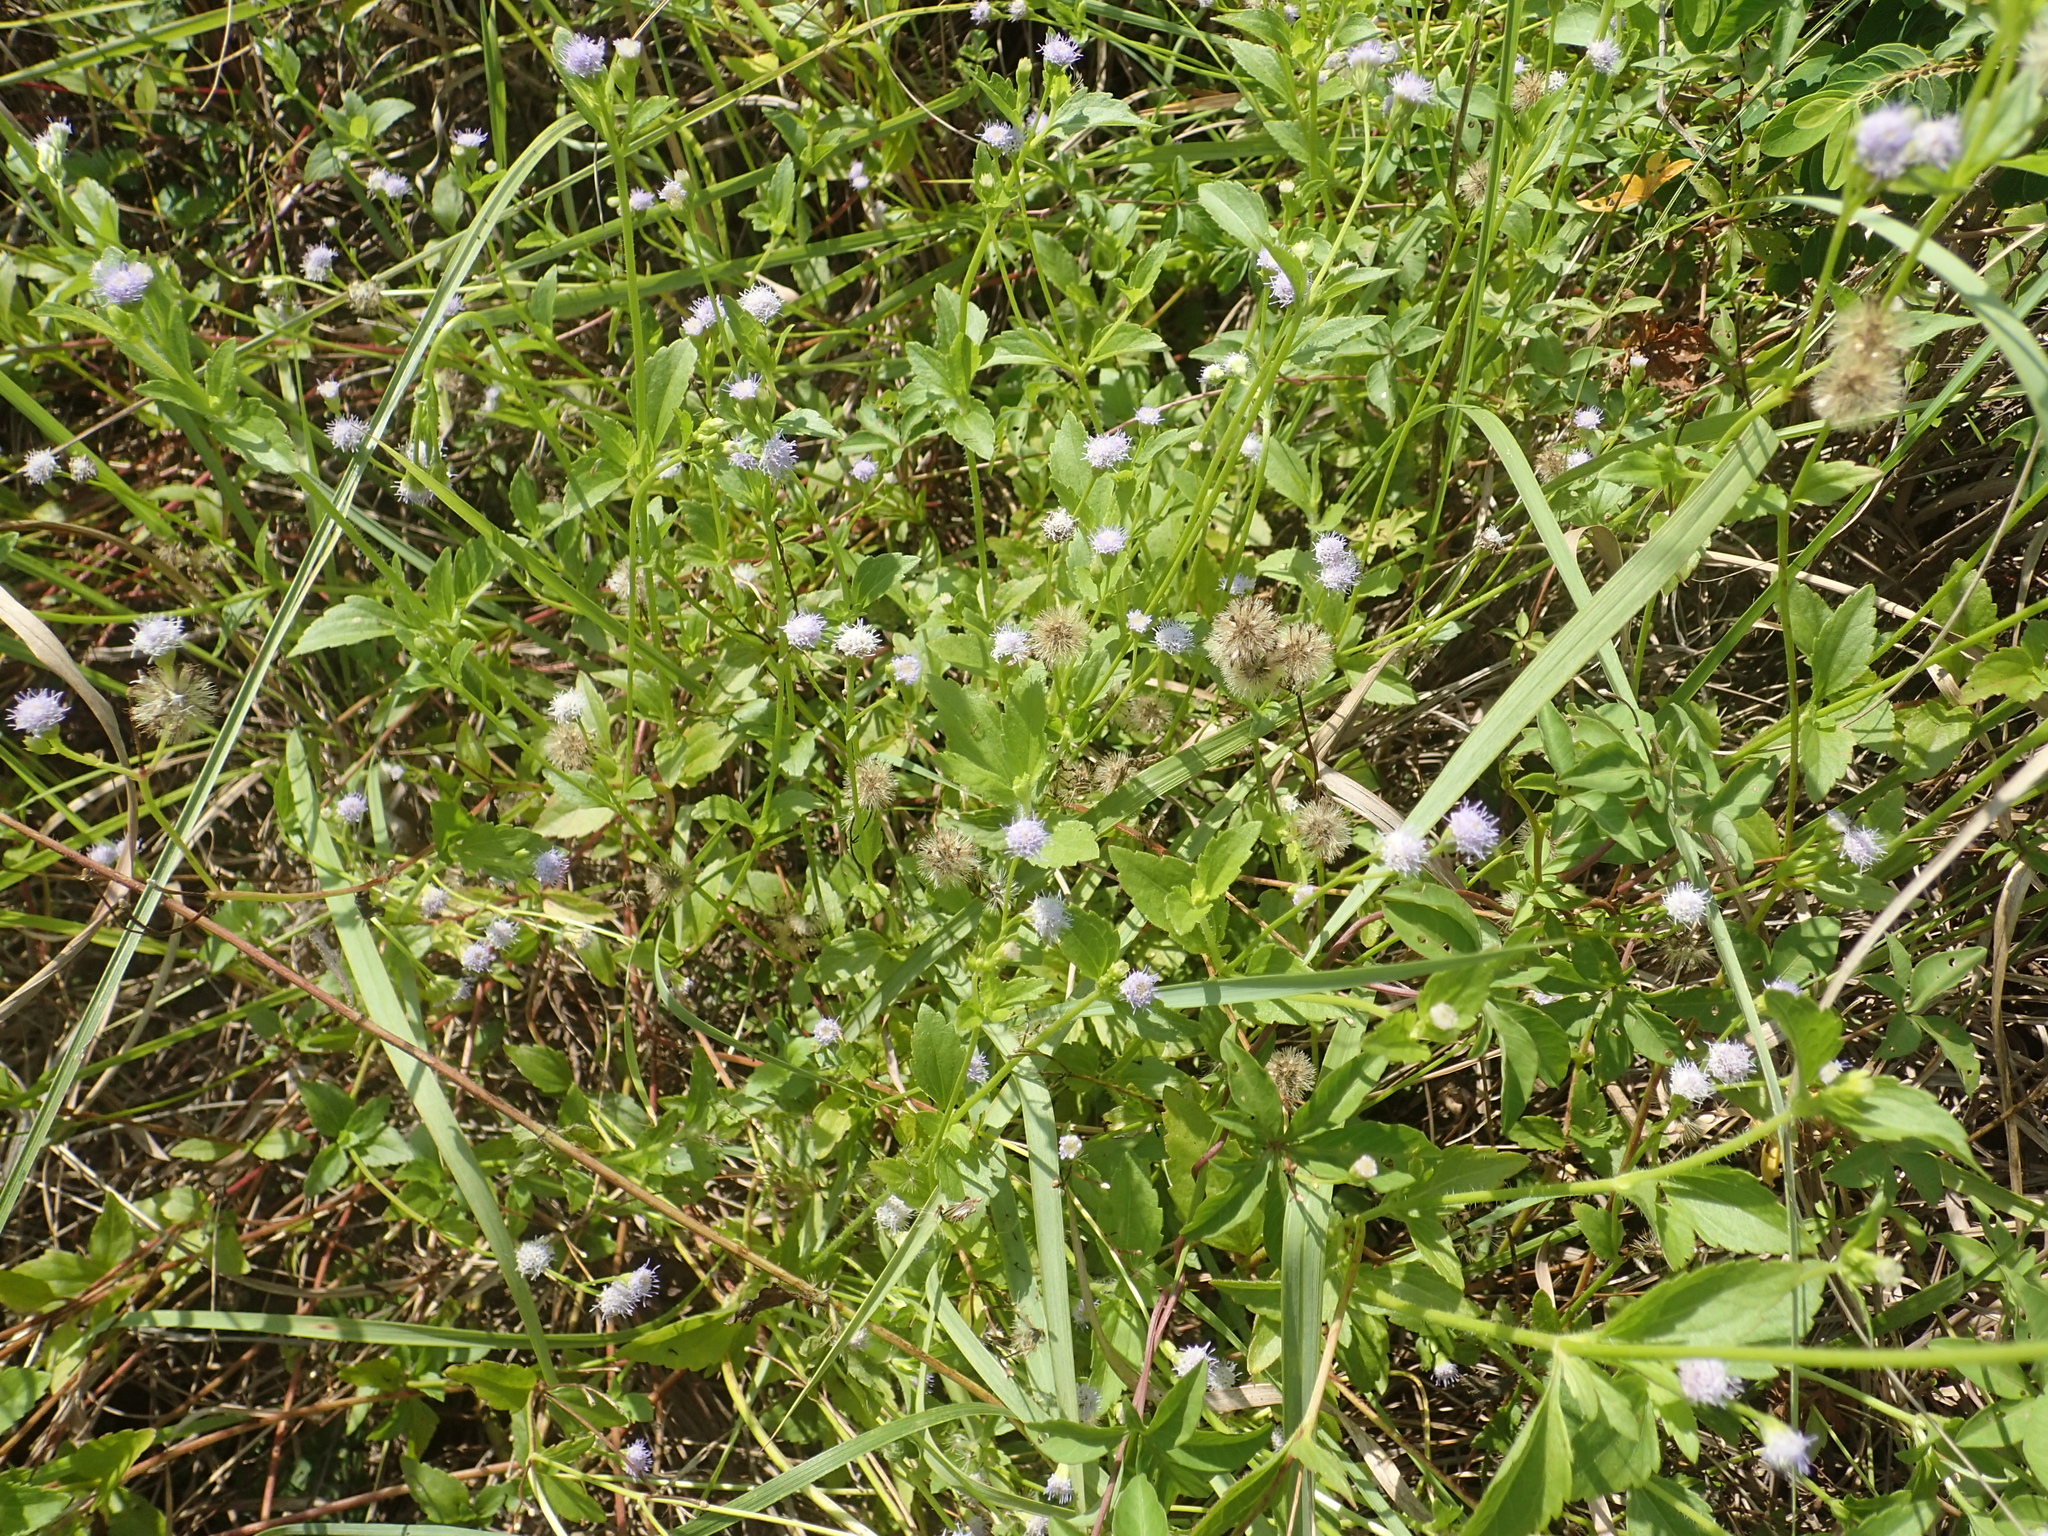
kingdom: Plantae
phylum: Tracheophyta
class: Magnoliopsida
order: Asterales
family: Asteraceae
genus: Praxelis
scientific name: Praxelis clematidea
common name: Praxelis
